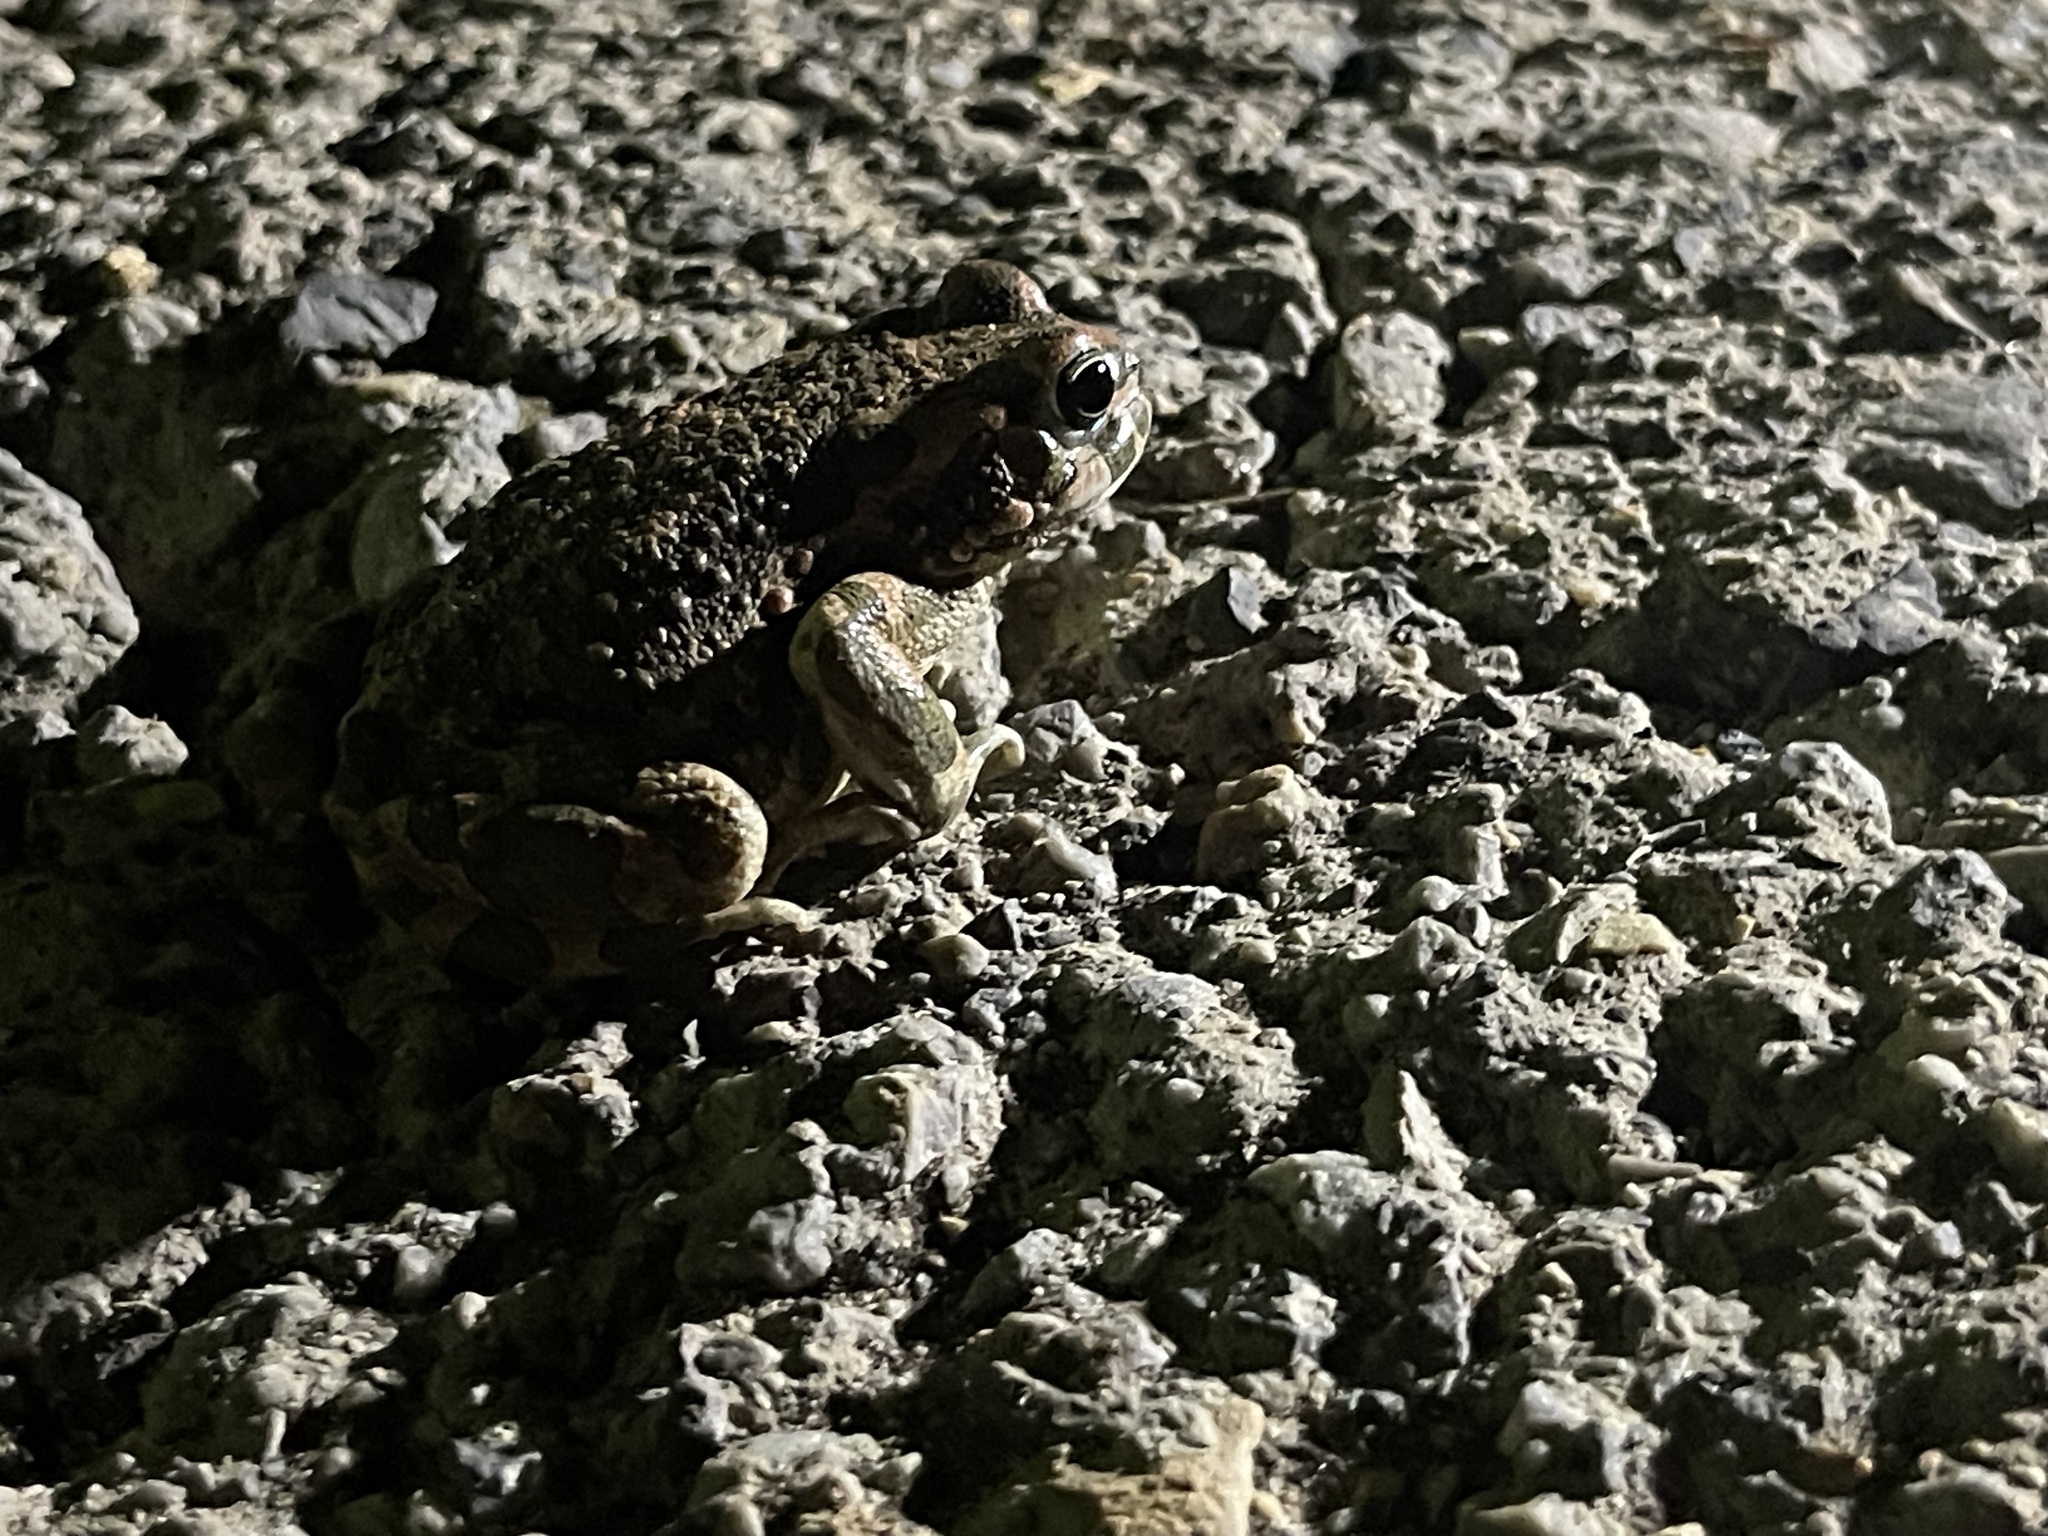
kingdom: Animalia
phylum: Chordata
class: Amphibia
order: Anura
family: Bufonidae
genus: Bufotes
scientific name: Bufotes viridis
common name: European green toad
